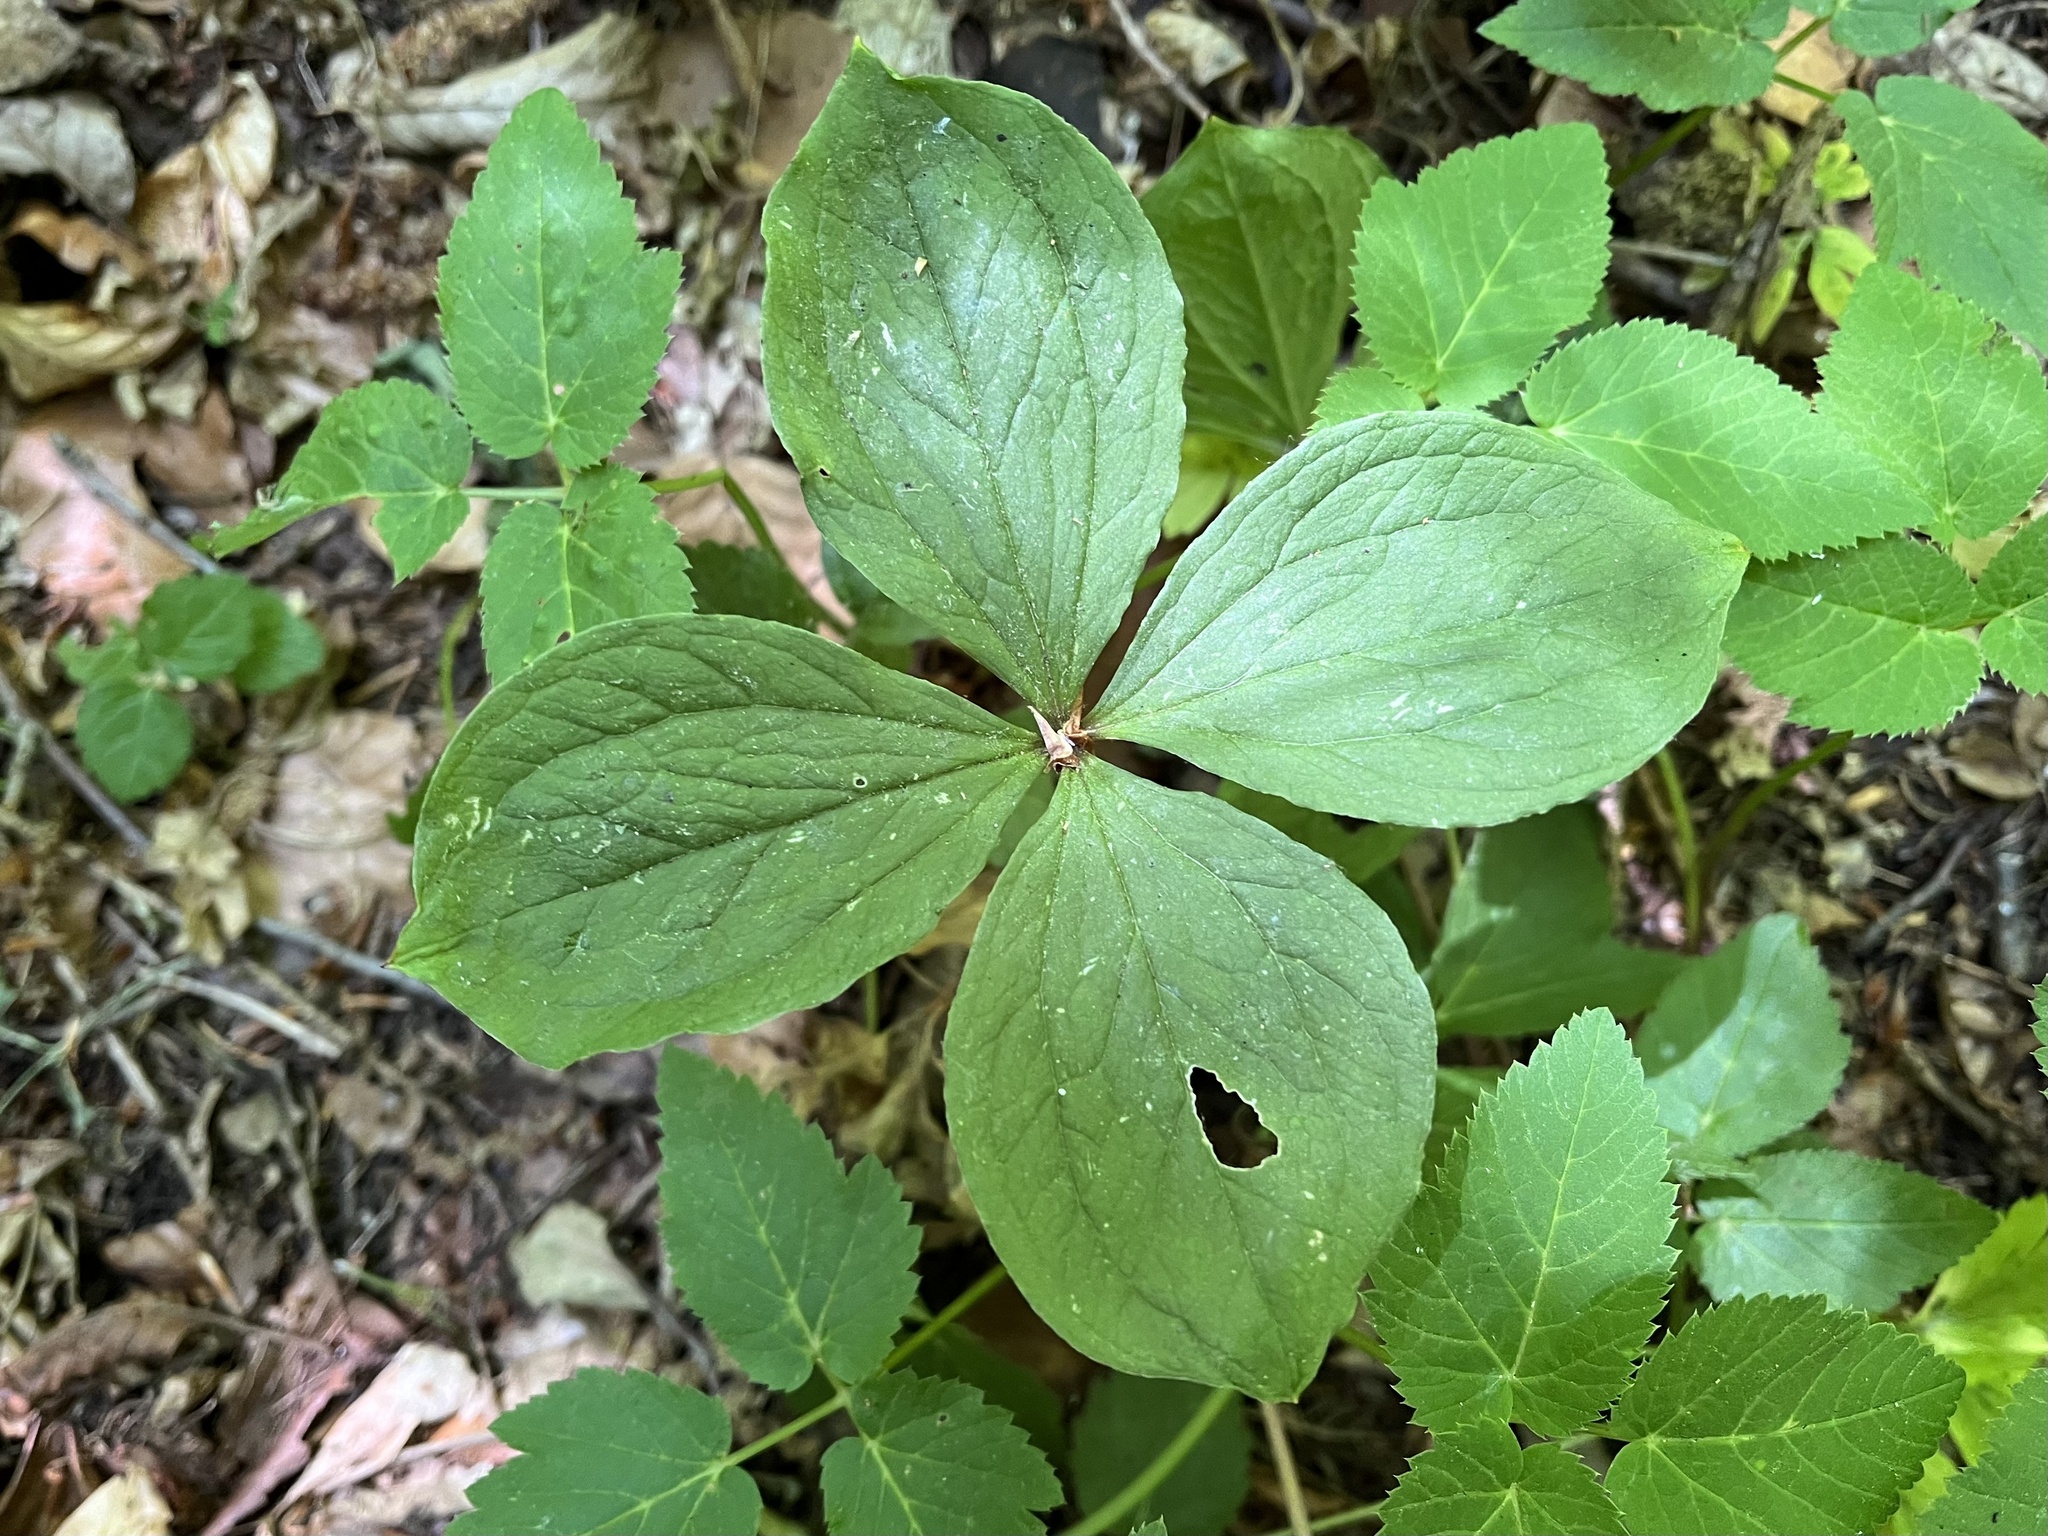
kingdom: Plantae
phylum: Tracheophyta
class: Liliopsida
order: Liliales
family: Melanthiaceae
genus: Paris
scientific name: Paris quadrifolia
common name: Herb-paris
